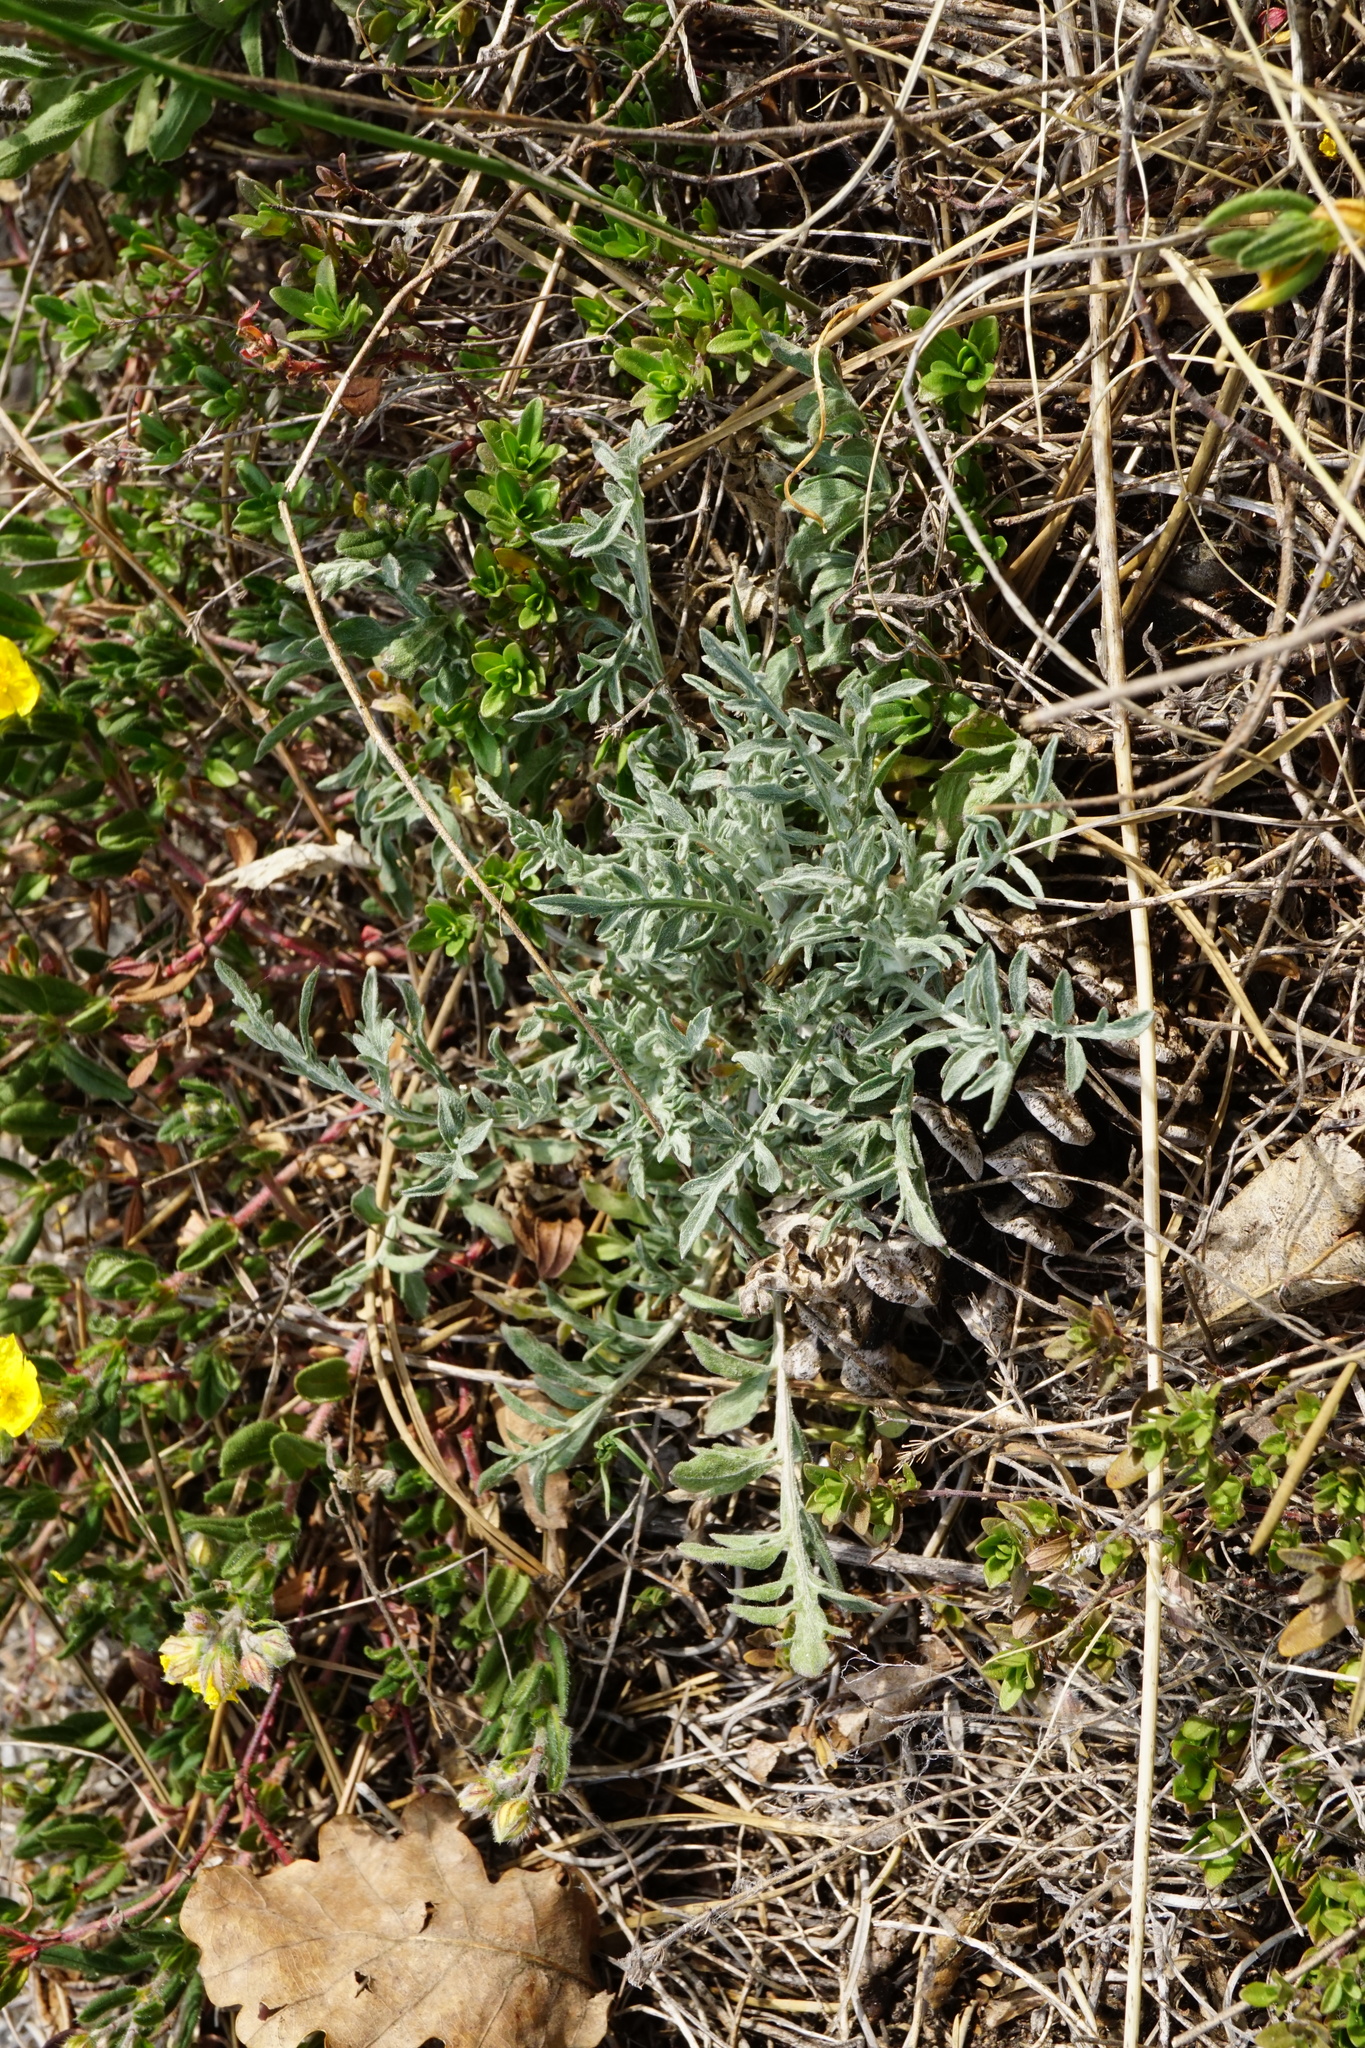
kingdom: Plantae
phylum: Tracheophyta
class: Magnoliopsida
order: Asterales
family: Asteraceae
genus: Centaurea
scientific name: Centaurea stoebe
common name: Spotted knapweed
